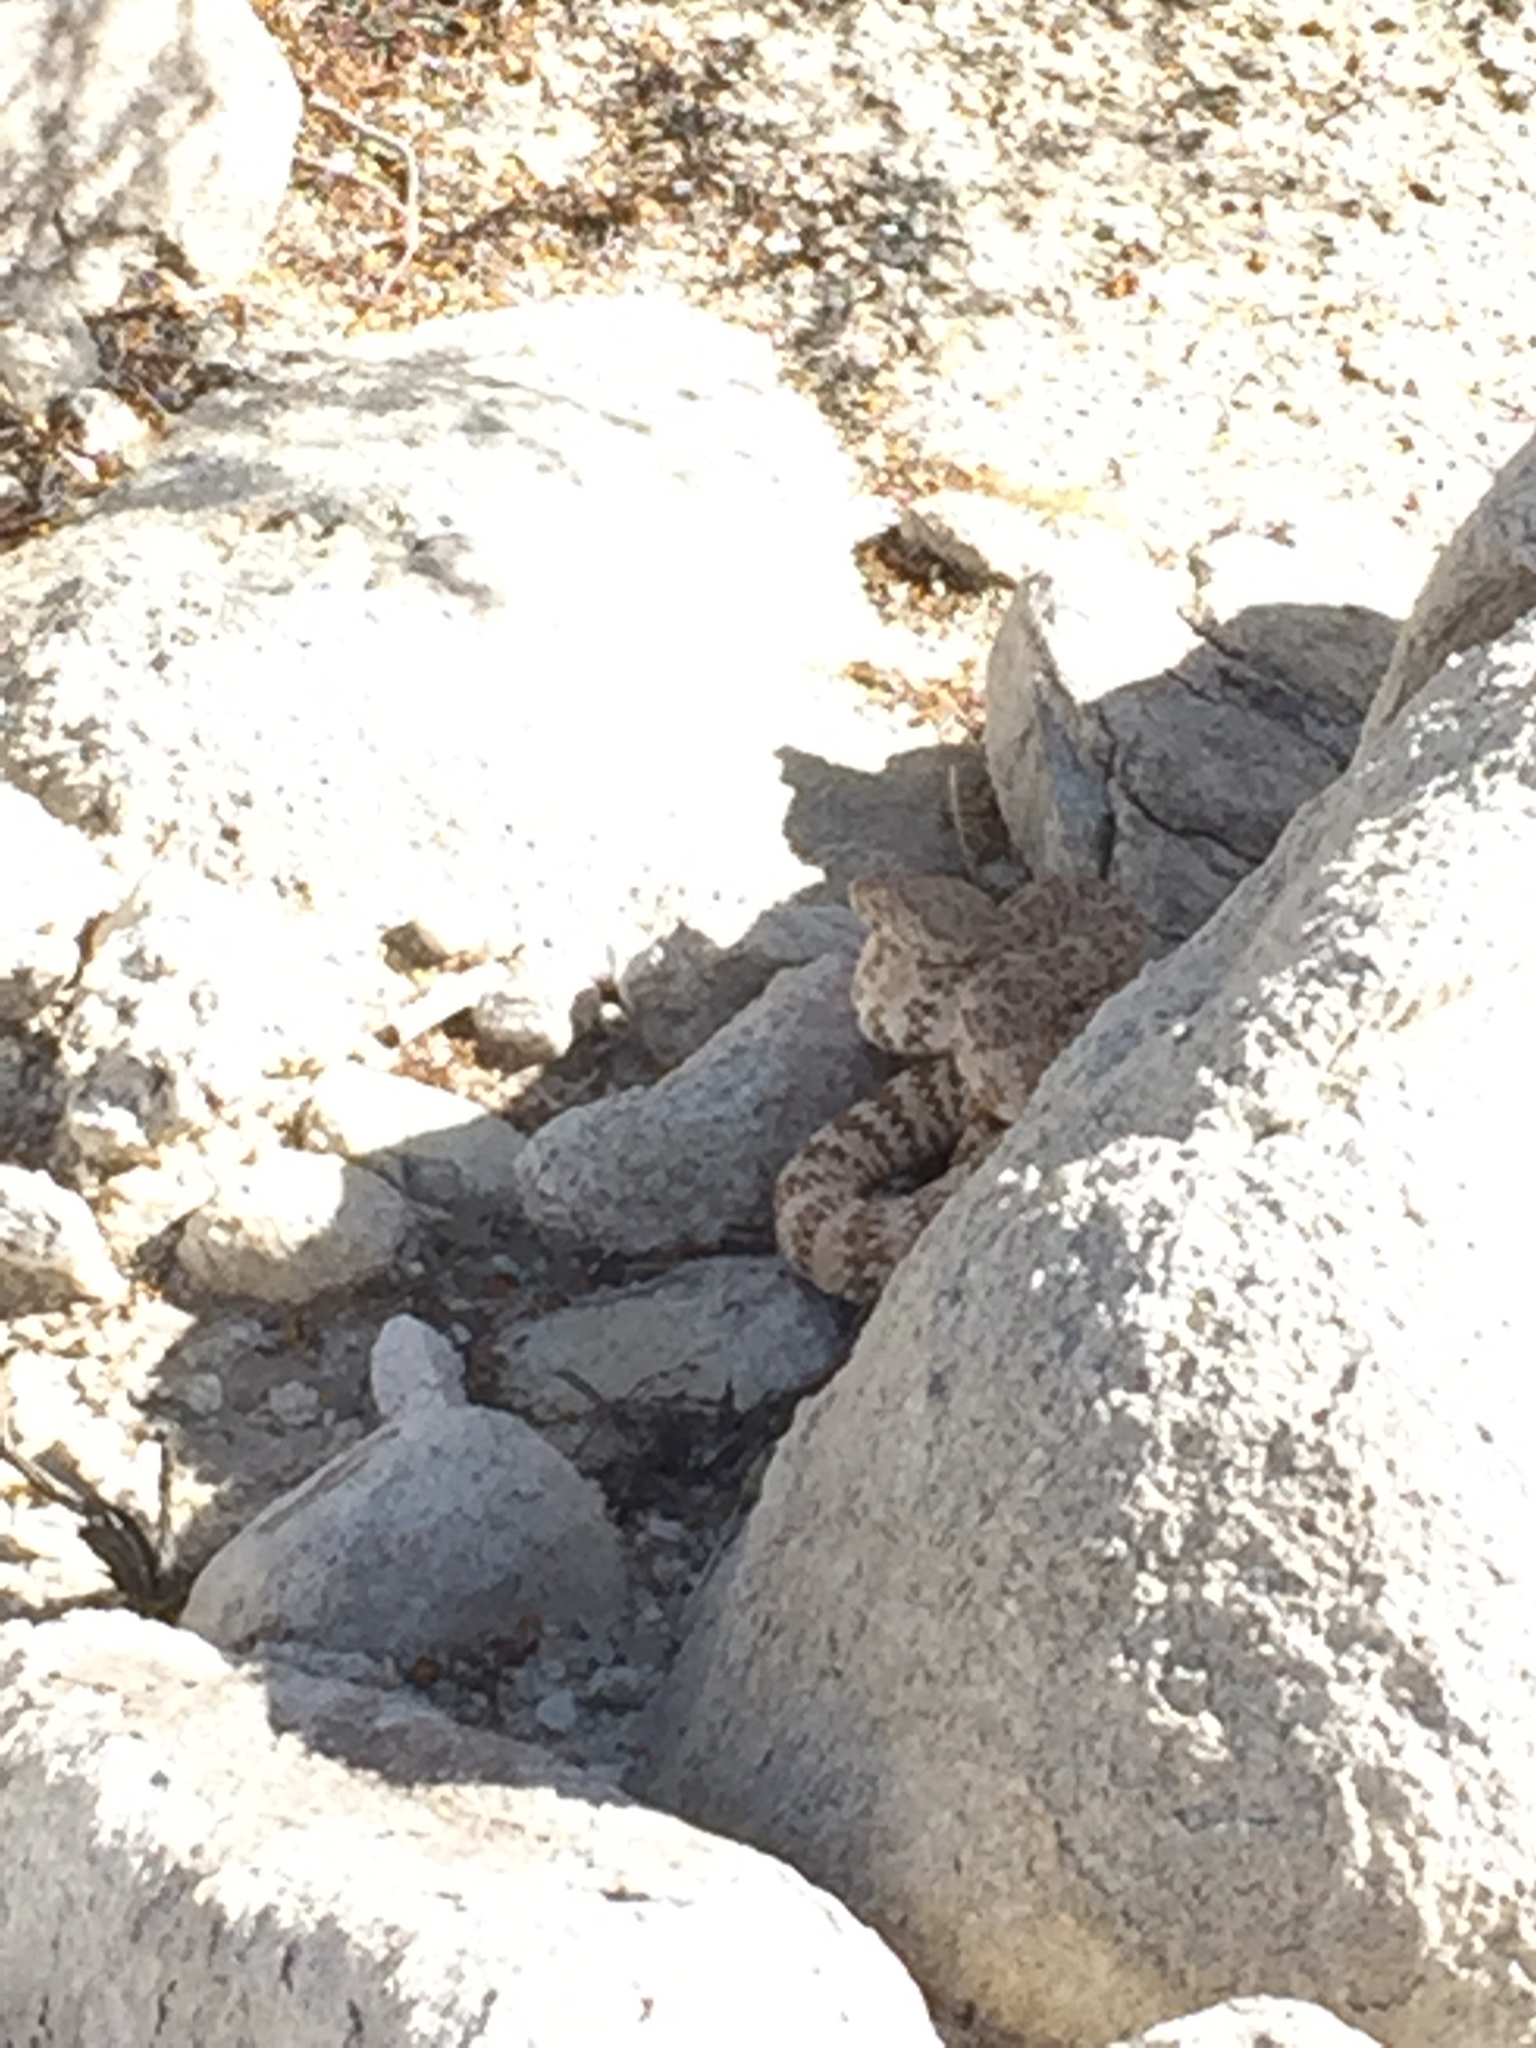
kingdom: Animalia
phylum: Chordata
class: Squamata
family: Viperidae
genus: Crotalus
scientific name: Crotalus pyrrhus
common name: Southwestern speckled rattlesnake
